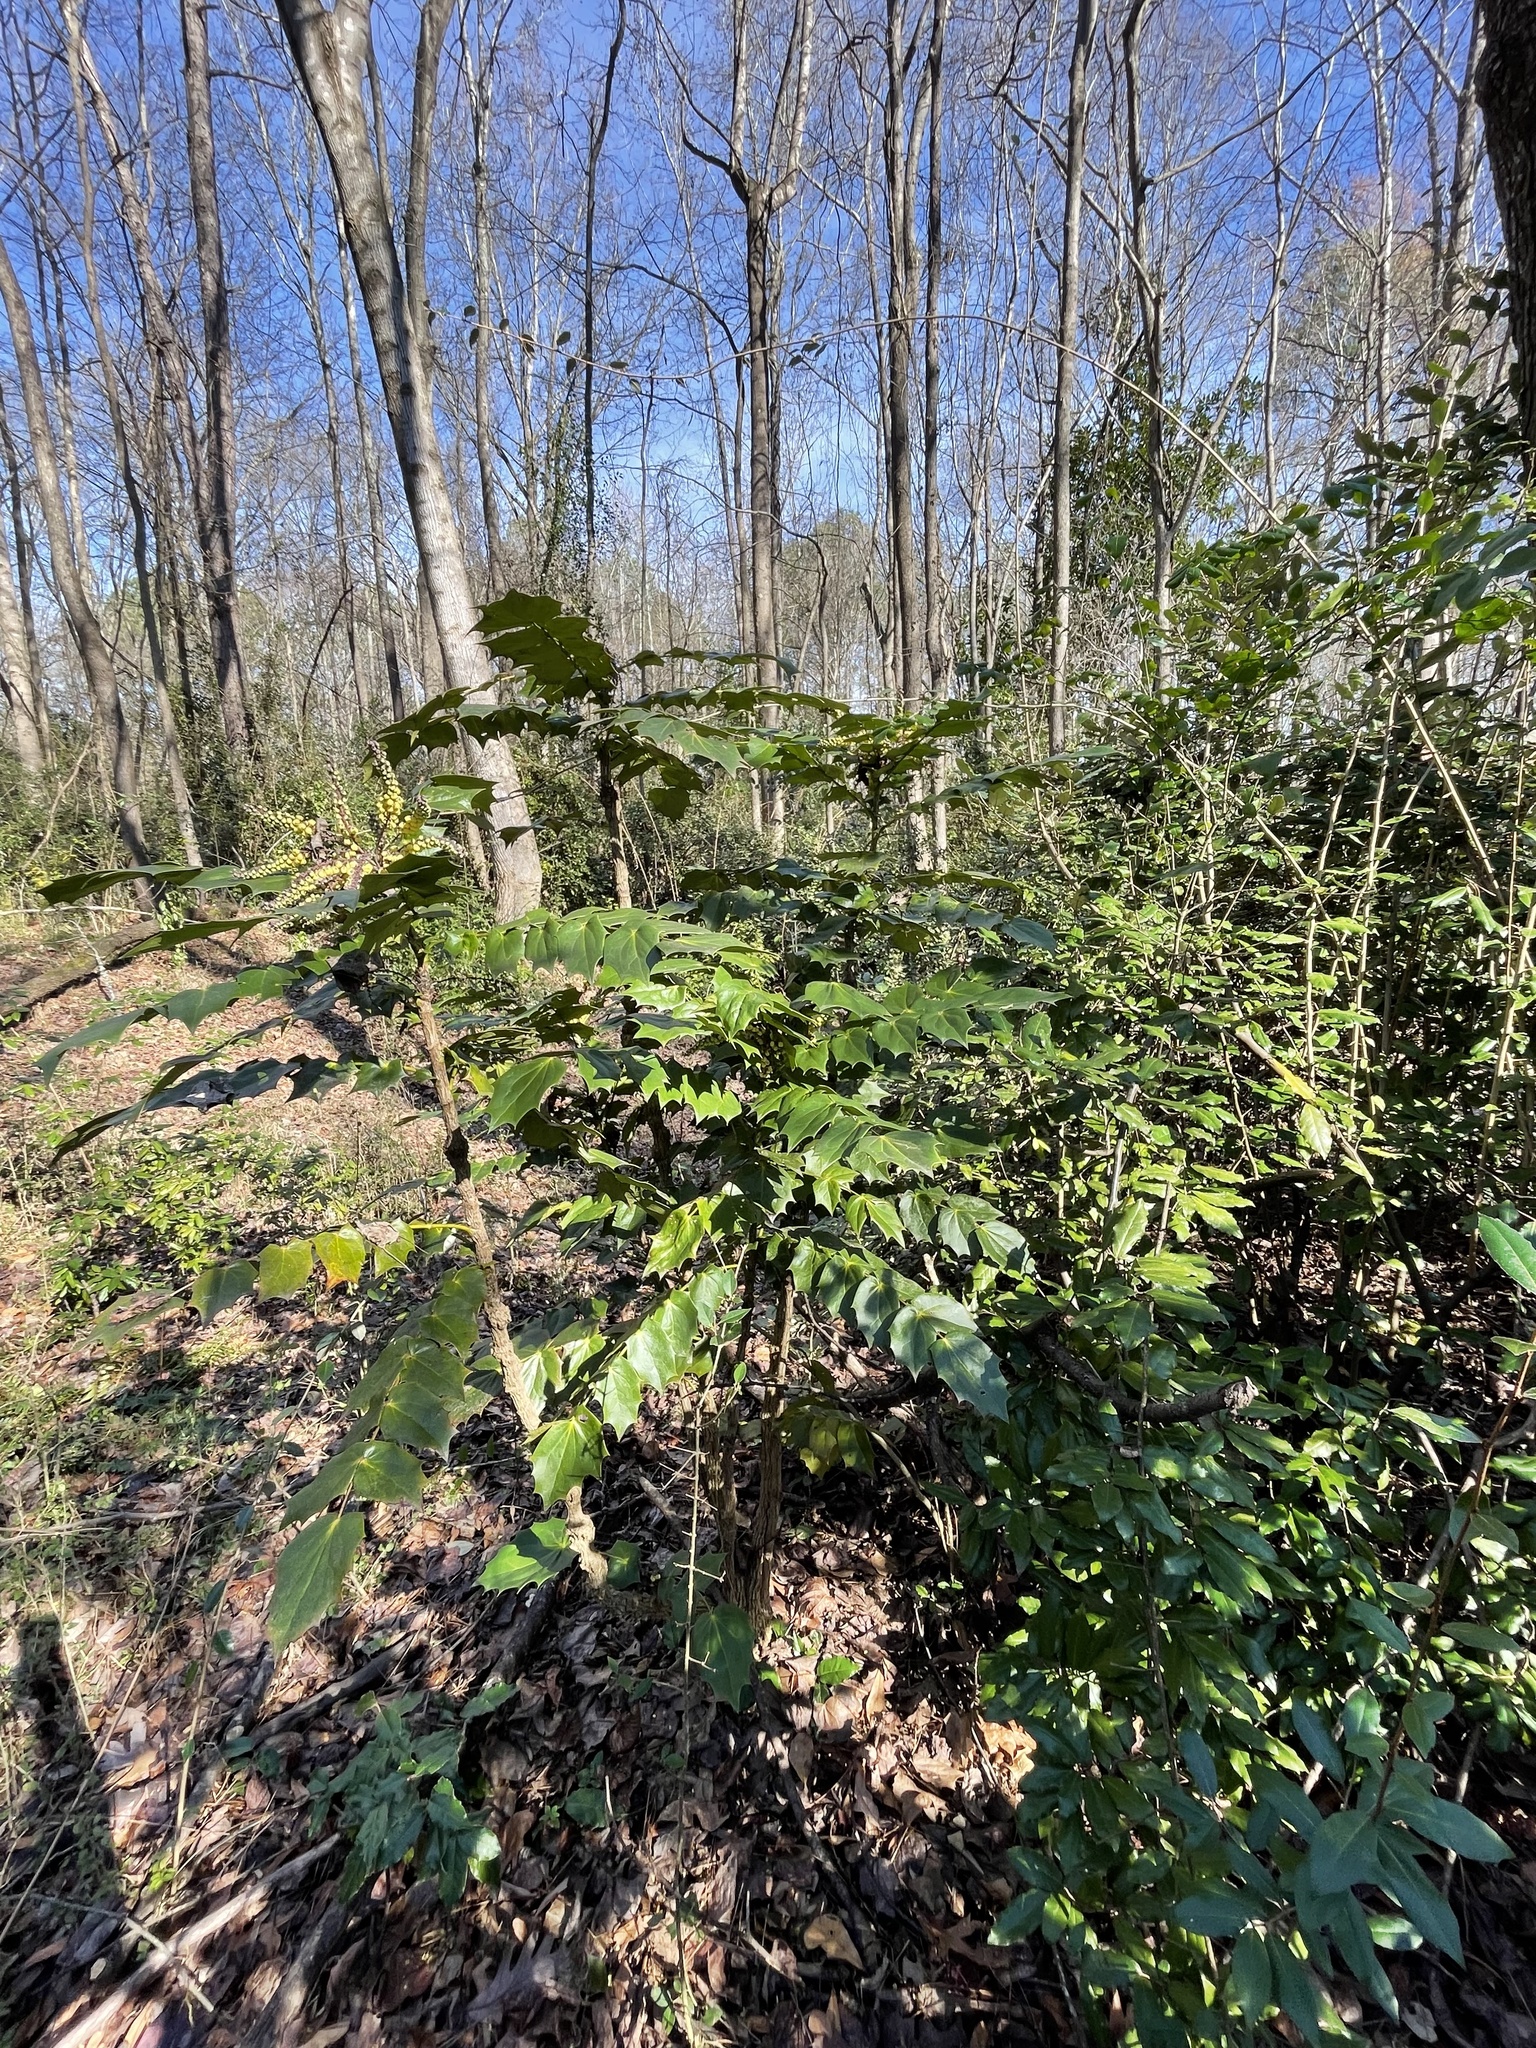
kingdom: Plantae
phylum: Tracheophyta
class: Magnoliopsida
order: Ranunculales
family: Berberidaceae
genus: Mahonia
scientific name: Mahonia bealei
